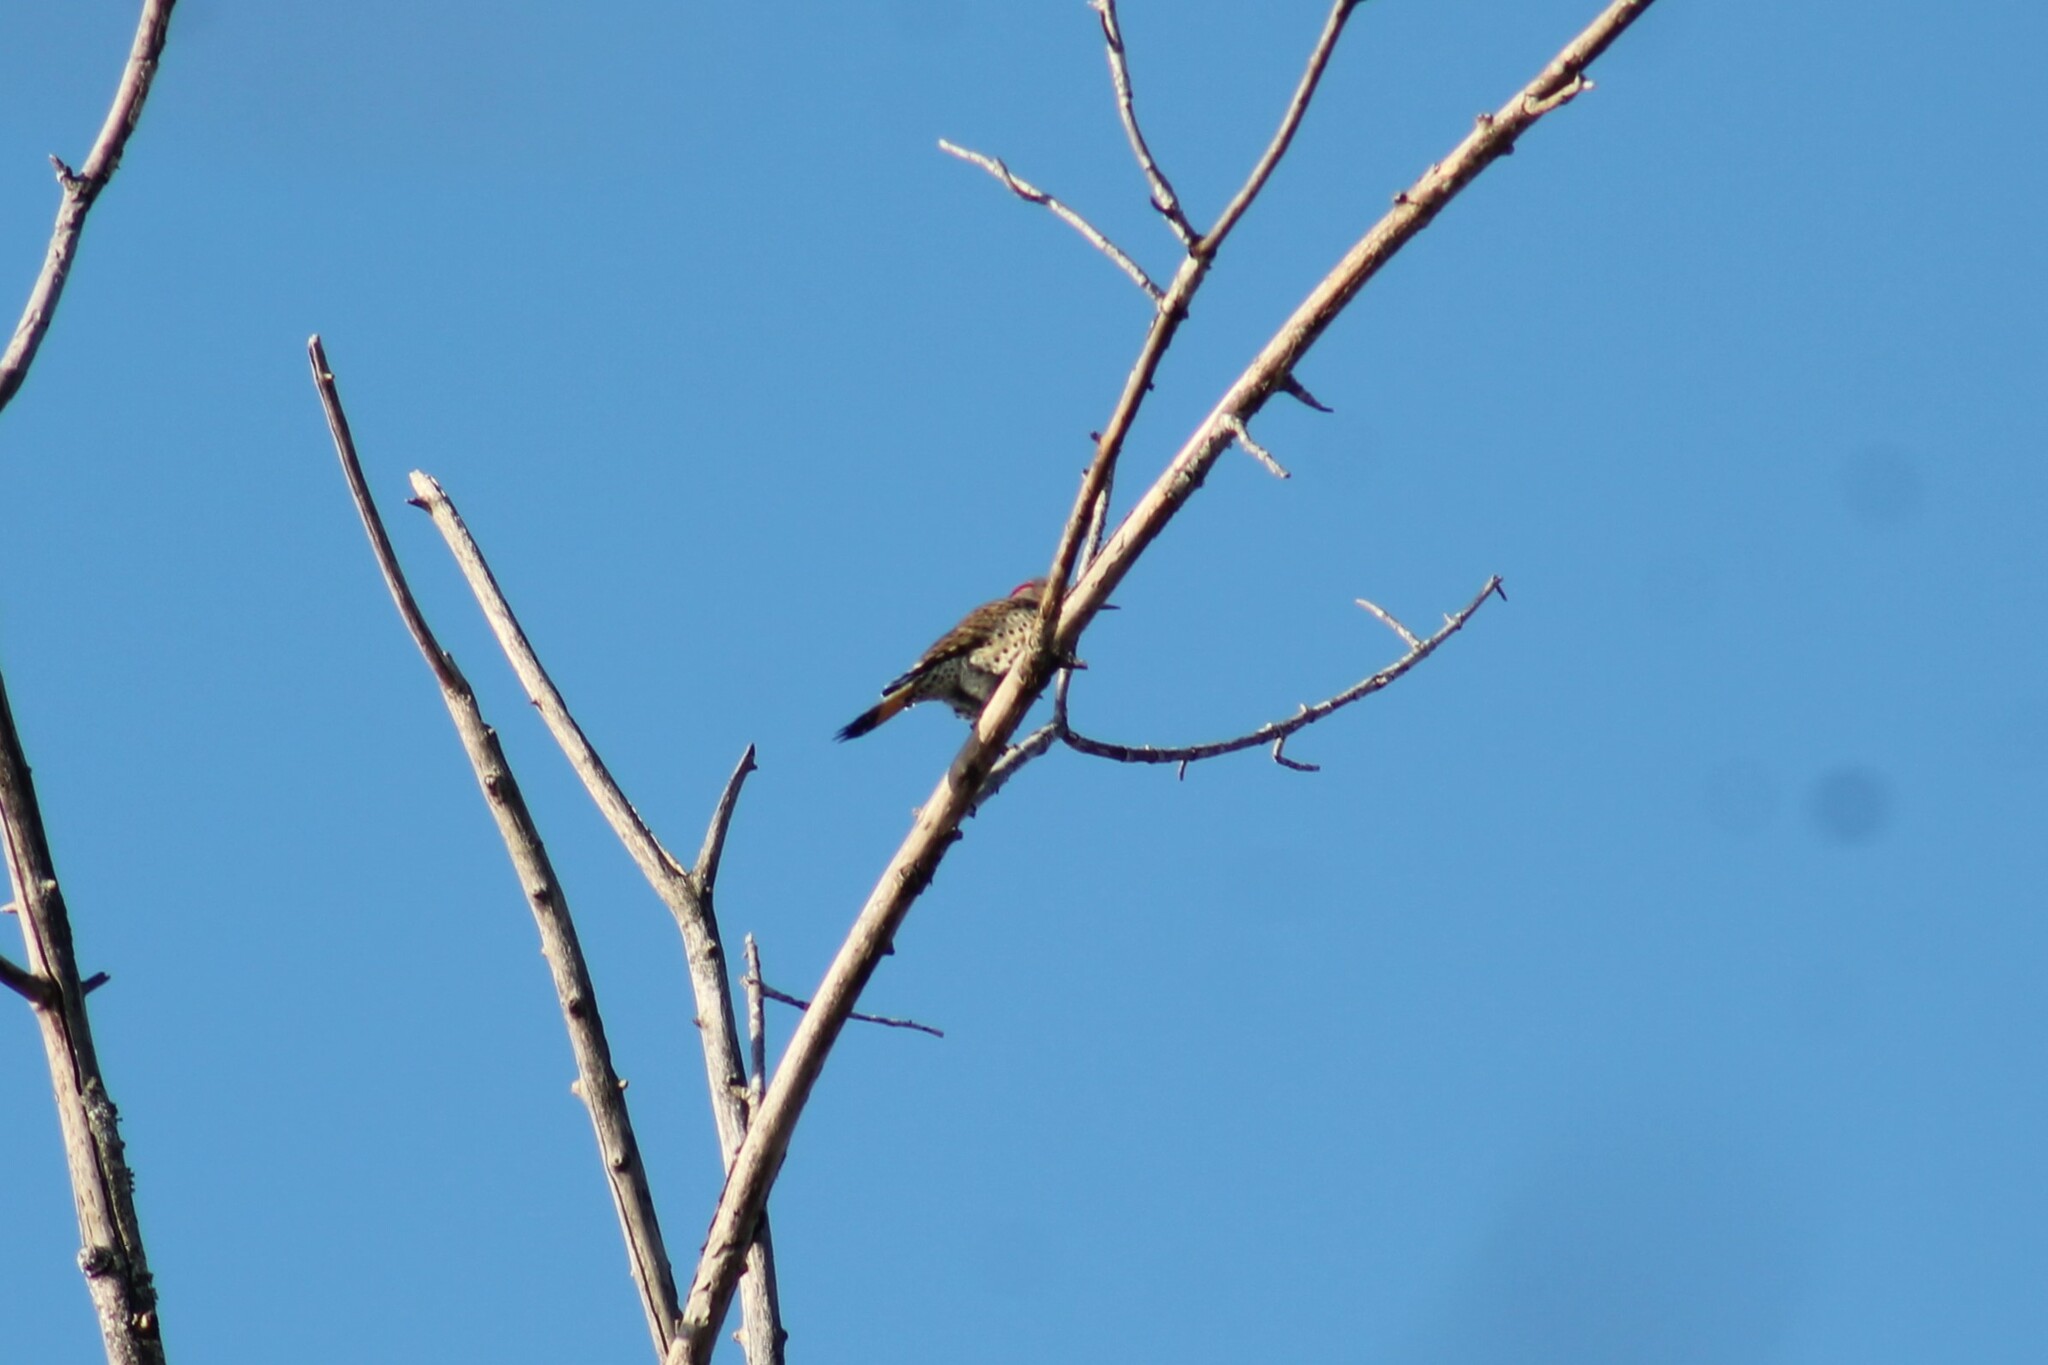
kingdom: Animalia
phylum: Chordata
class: Aves
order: Piciformes
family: Picidae
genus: Colaptes
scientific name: Colaptes auratus
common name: Northern flicker
